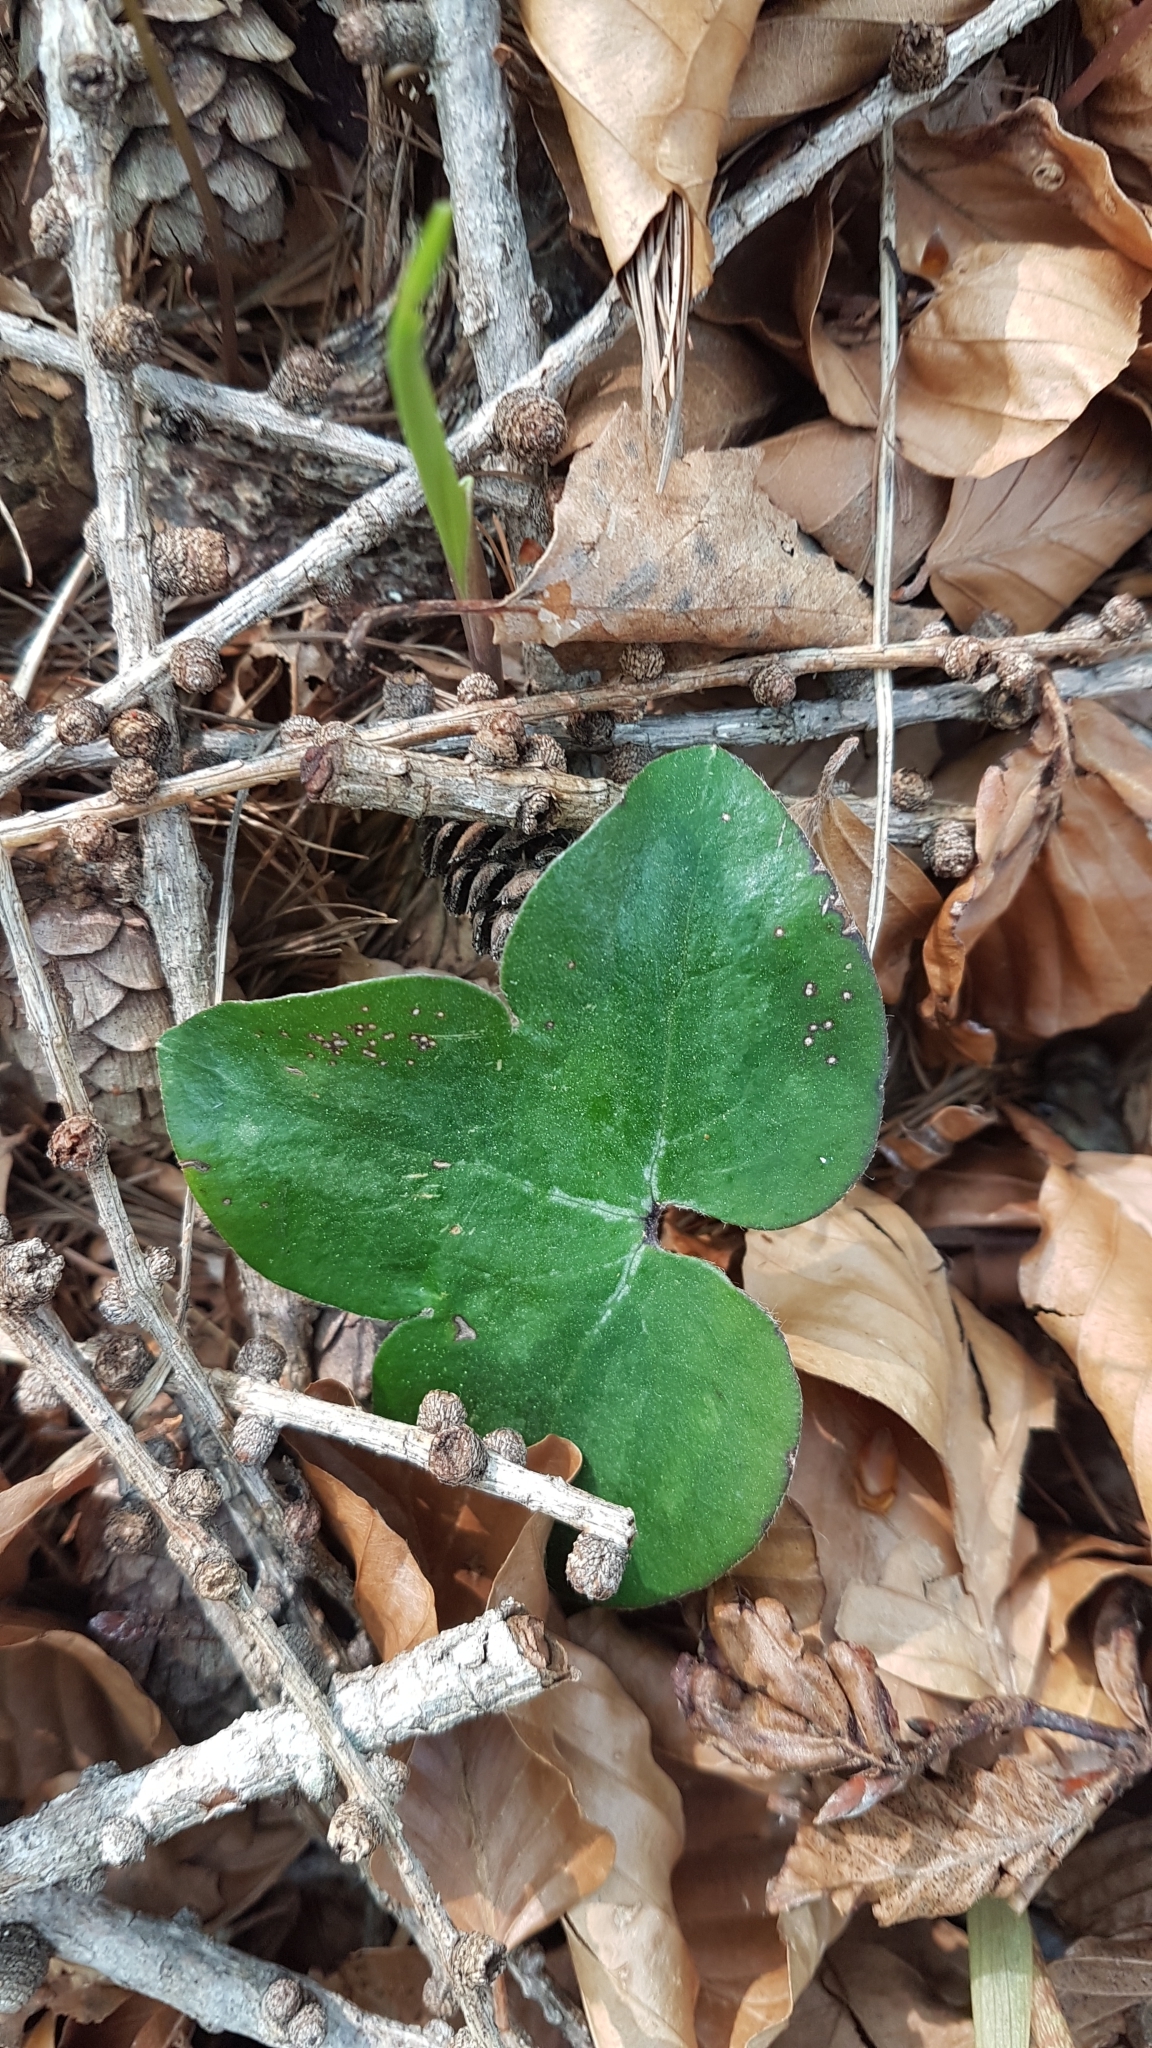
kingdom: Plantae
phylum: Tracheophyta
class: Magnoliopsida
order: Ranunculales
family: Ranunculaceae
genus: Hepatica
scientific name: Hepatica nobilis
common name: Liverleaf
